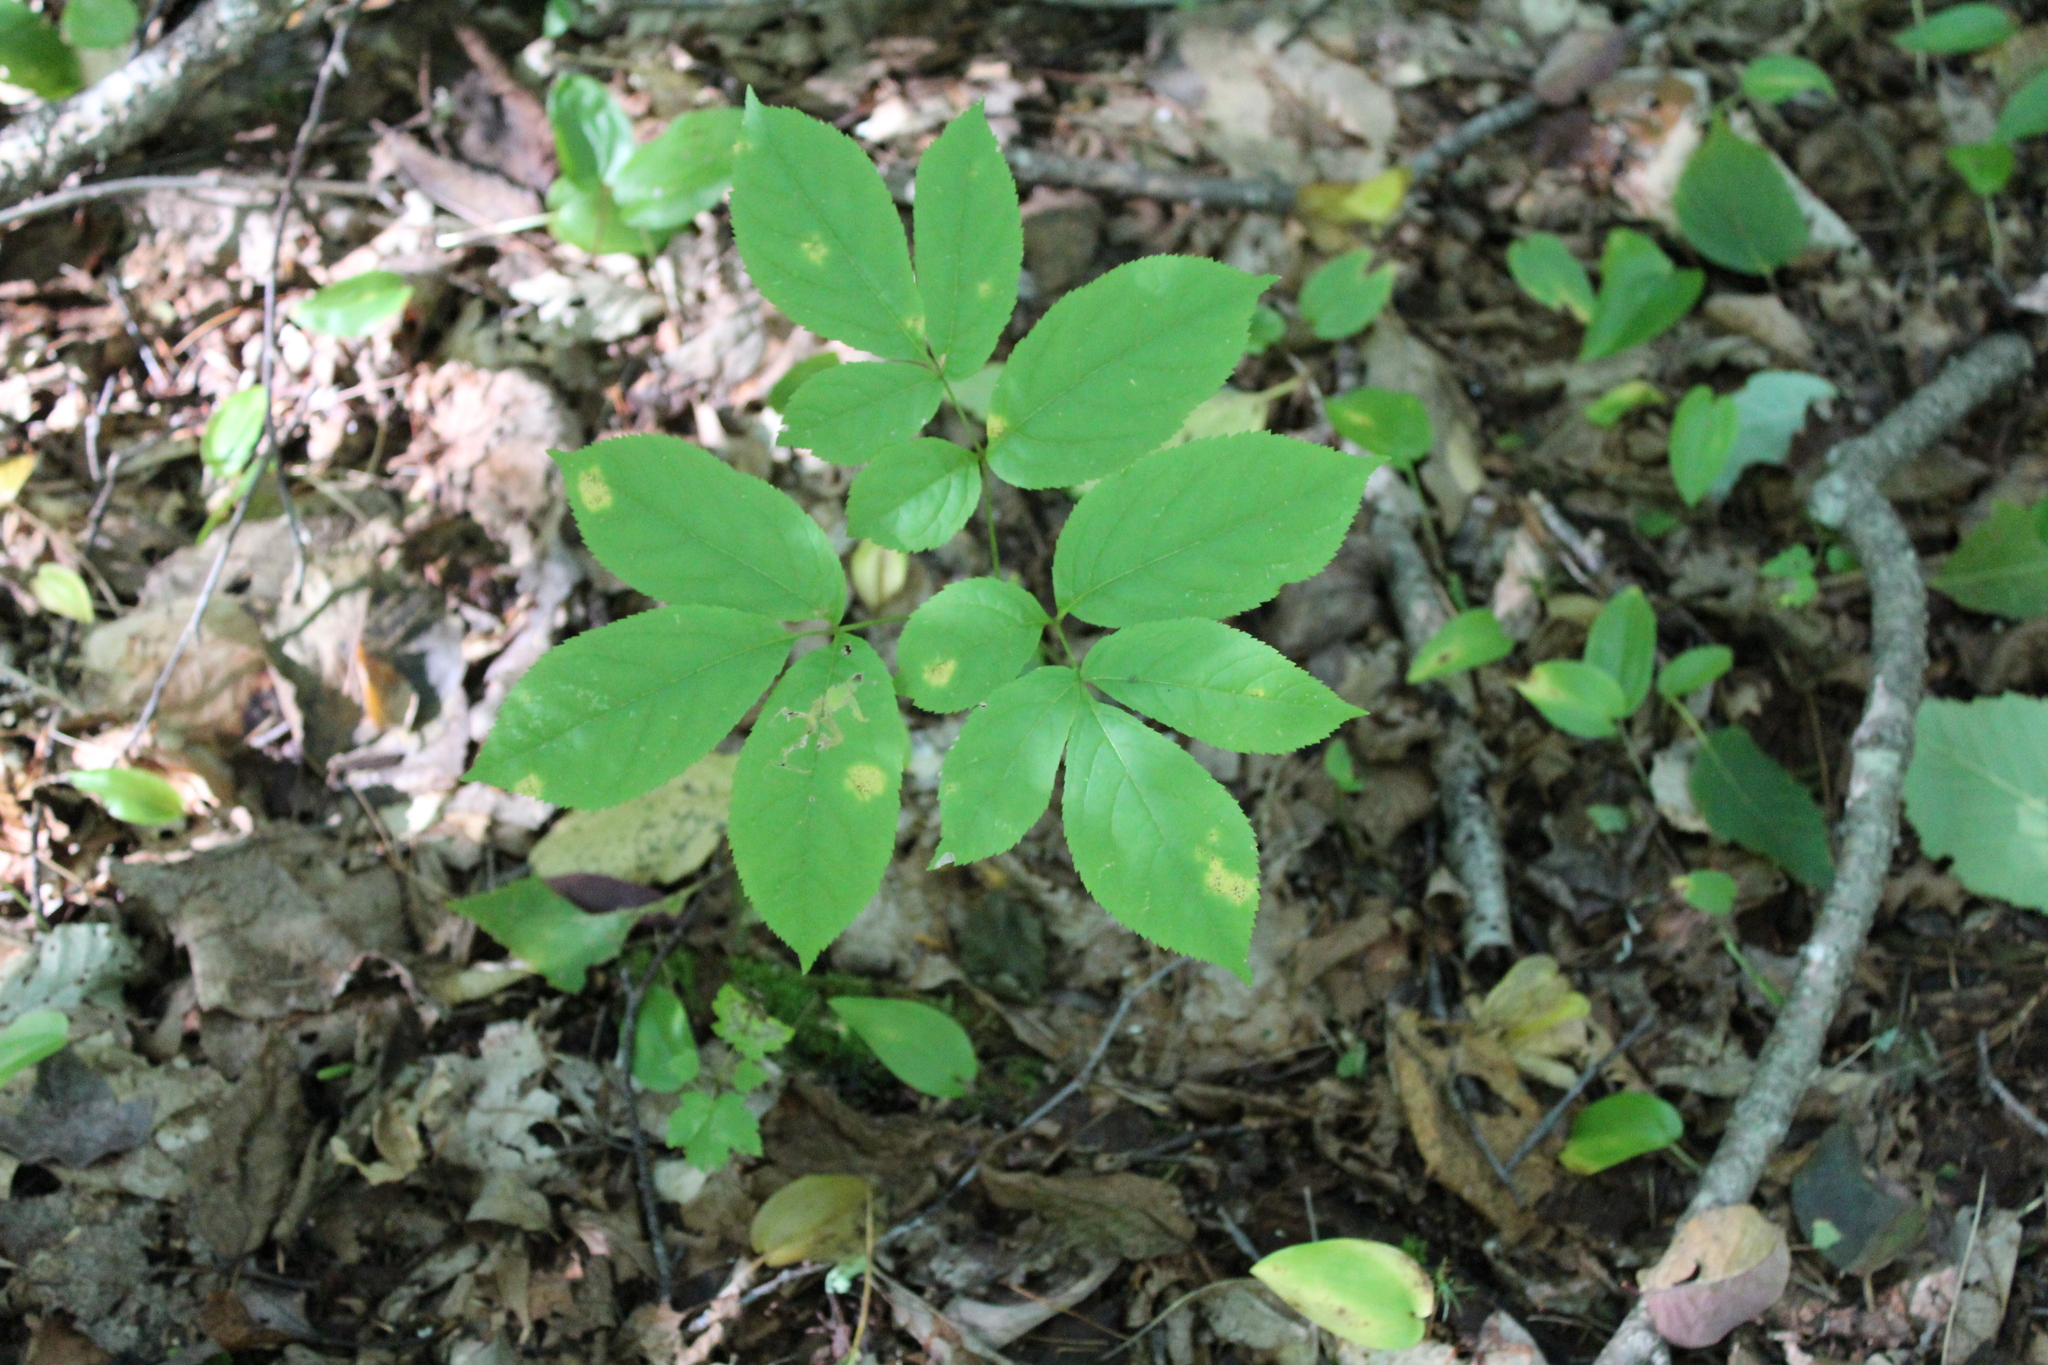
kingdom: Plantae
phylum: Tracheophyta
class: Magnoliopsida
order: Apiales
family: Araliaceae
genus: Aralia
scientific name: Aralia nudicaulis
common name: Wild sarsaparilla
